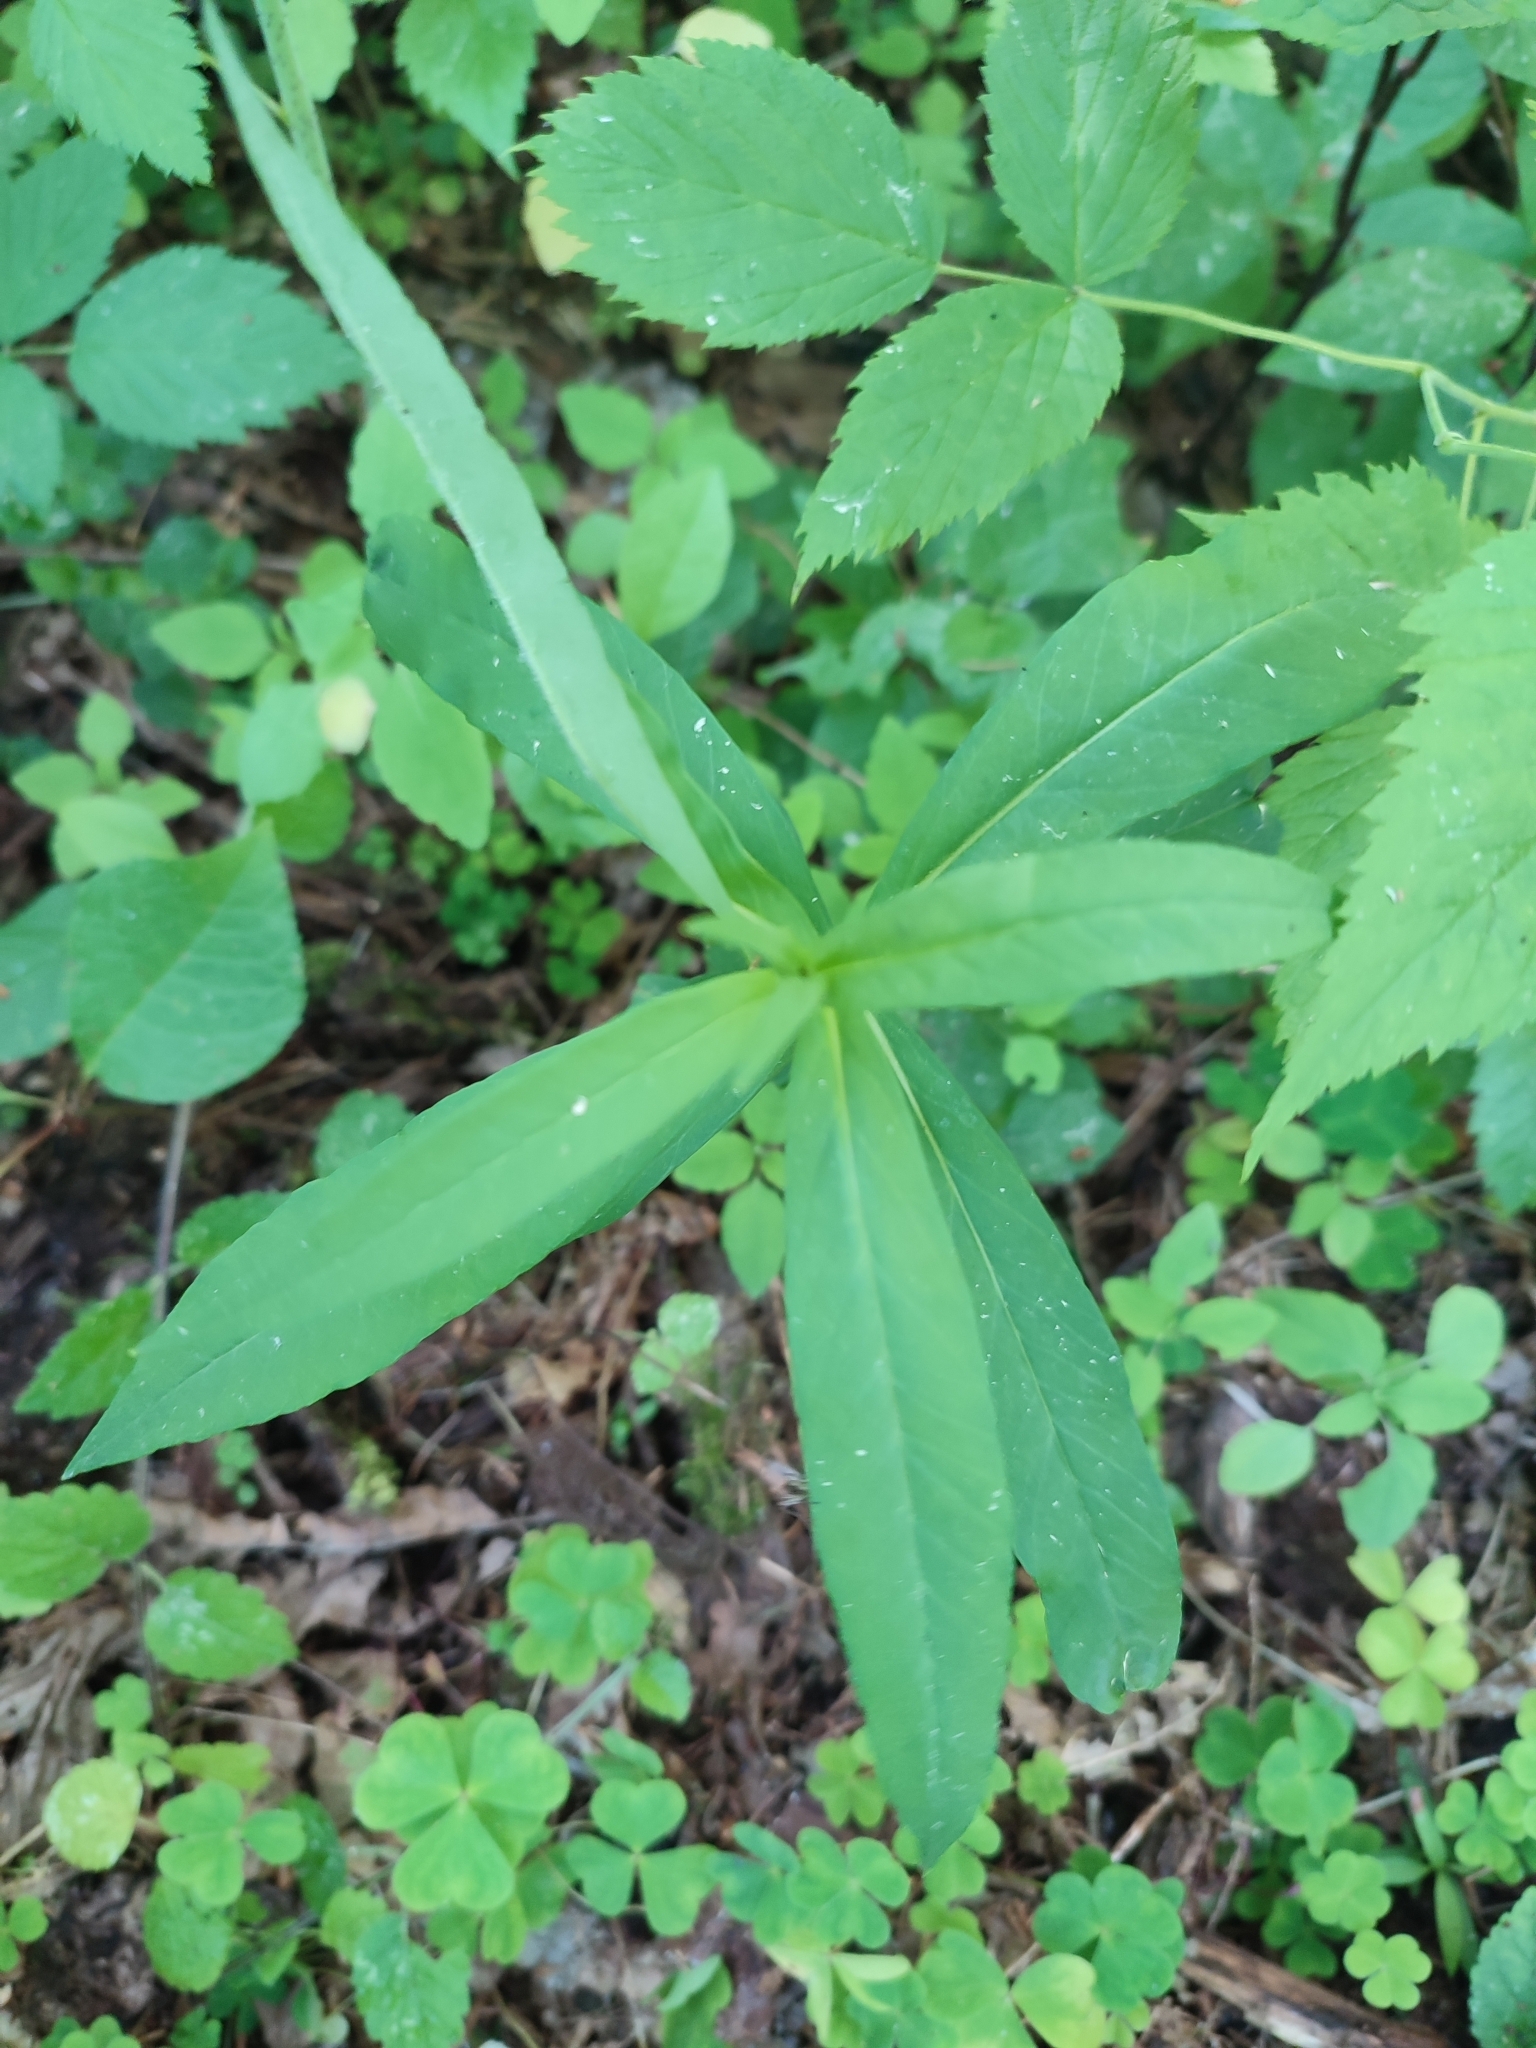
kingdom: Plantae
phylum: Tracheophyta
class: Magnoliopsida
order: Ericales
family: Primulaceae
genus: Lysimachia
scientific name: Lysimachia thyrsiflora
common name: Tufted loosestrife
